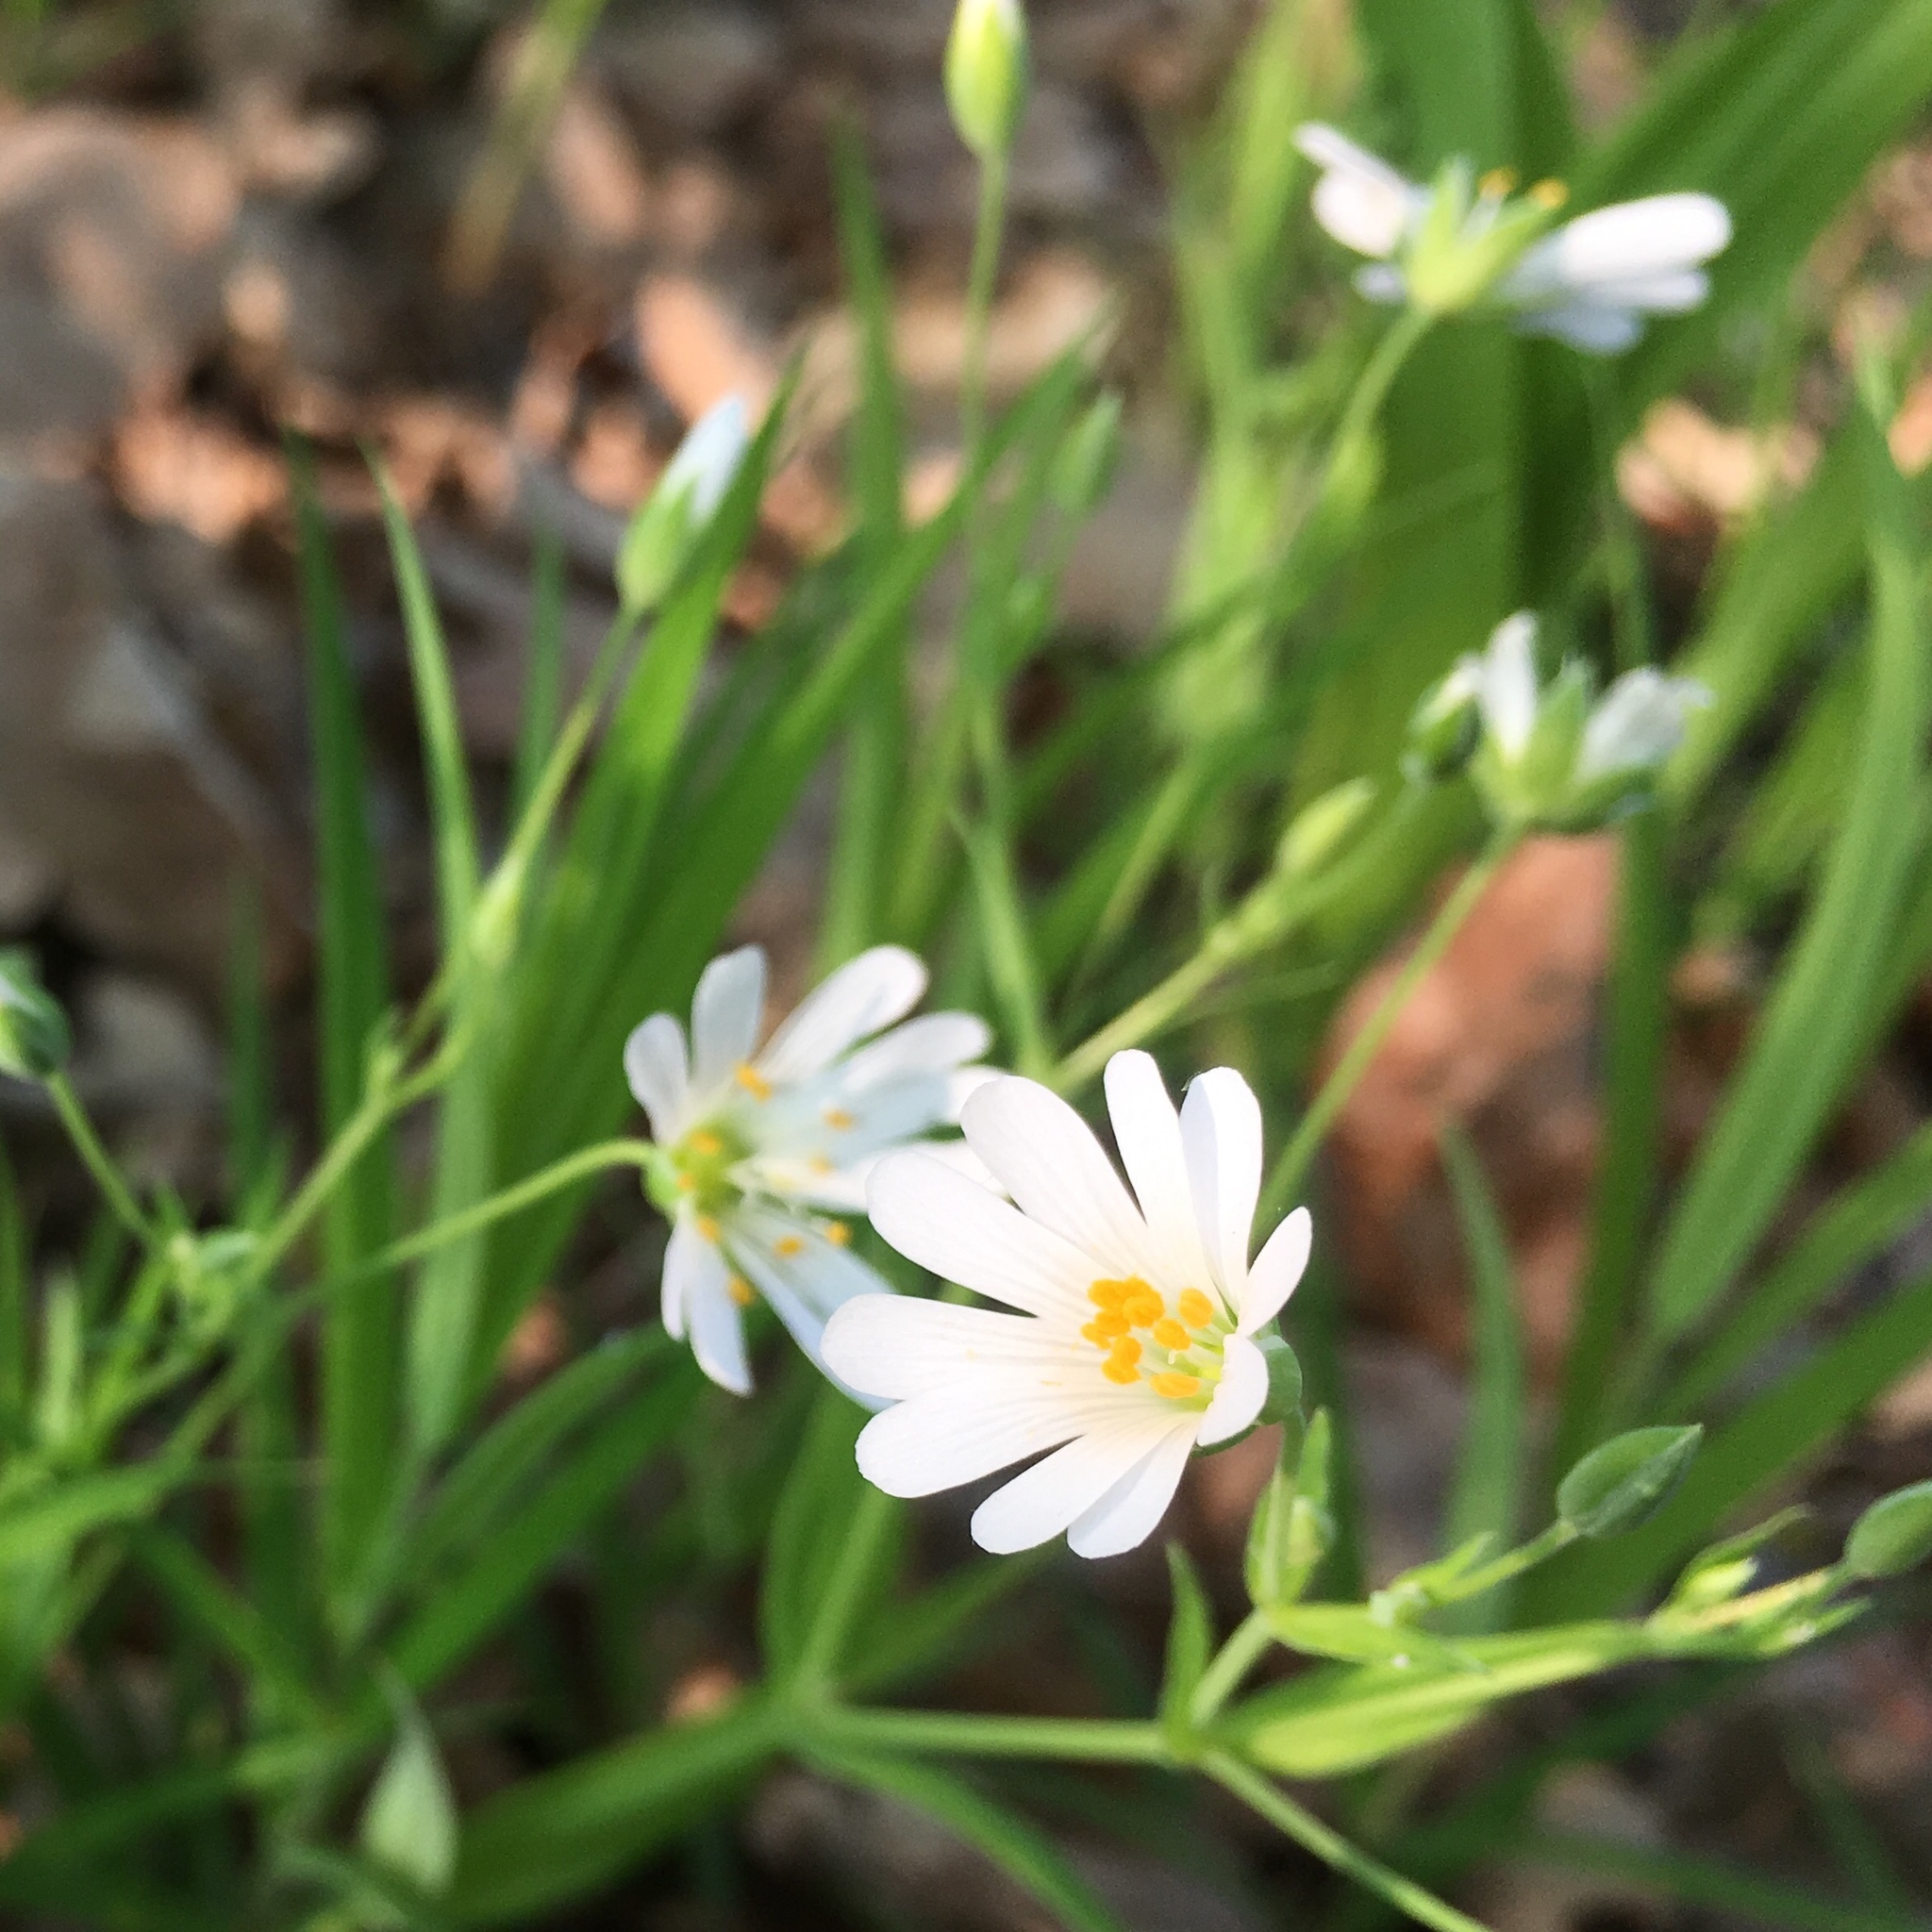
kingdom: Plantae
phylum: Tracheophyta
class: Magnoliopsida
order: Caryophyllales
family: Caryophyllaceae
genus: Rabelera
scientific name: Rabelera holostea
